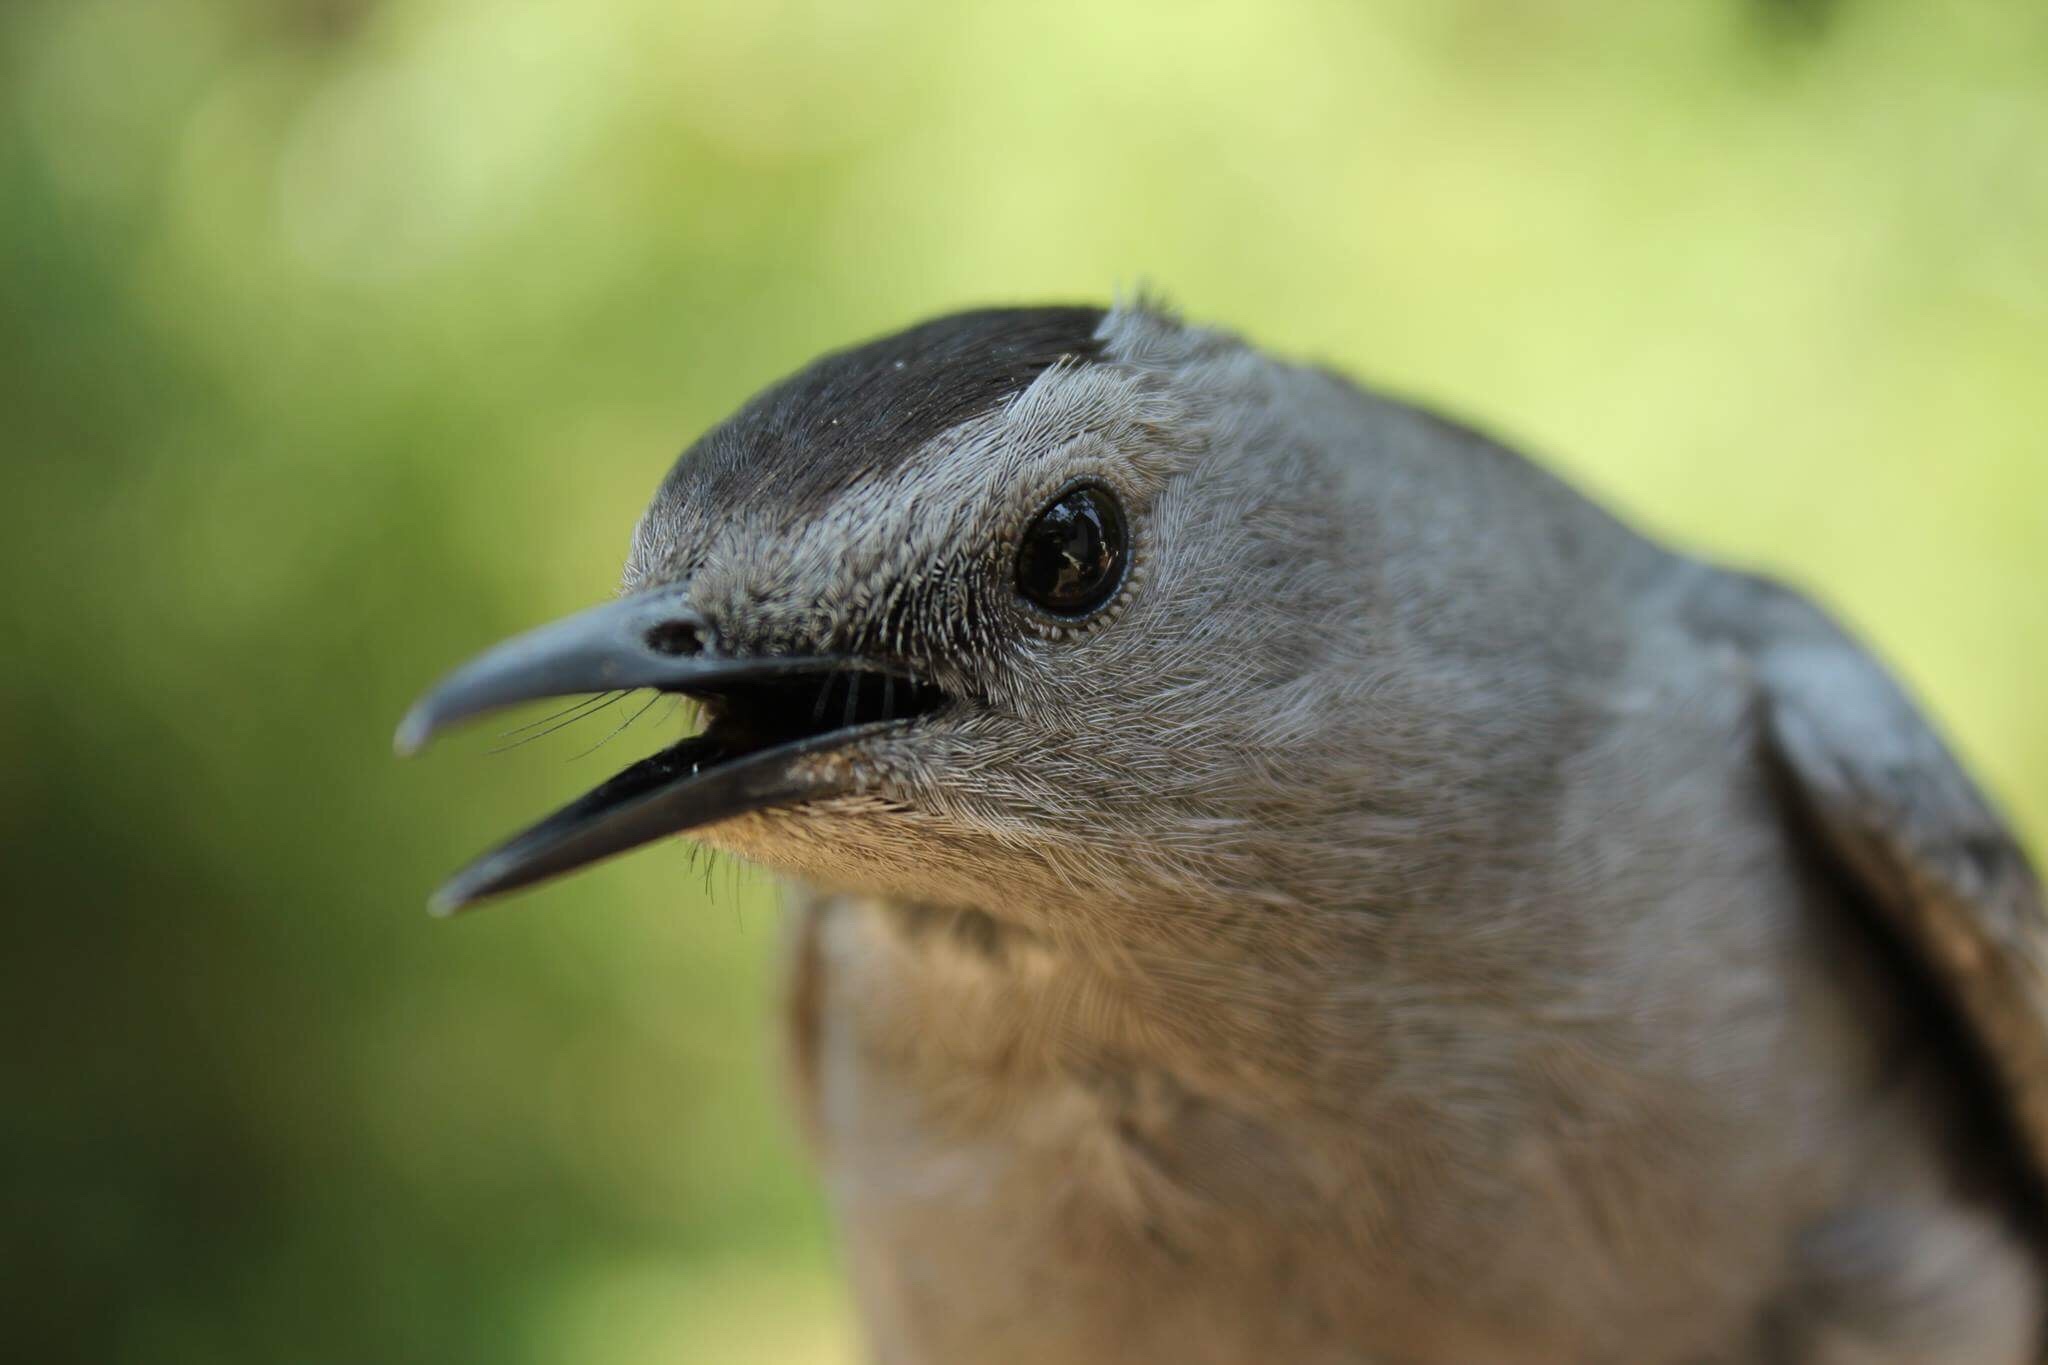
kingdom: Animalia
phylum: Chordata
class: Aves
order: Passeriformes
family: Mimidae
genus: Dumetella
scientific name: Dumetella carolinensis
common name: Gray catbird
